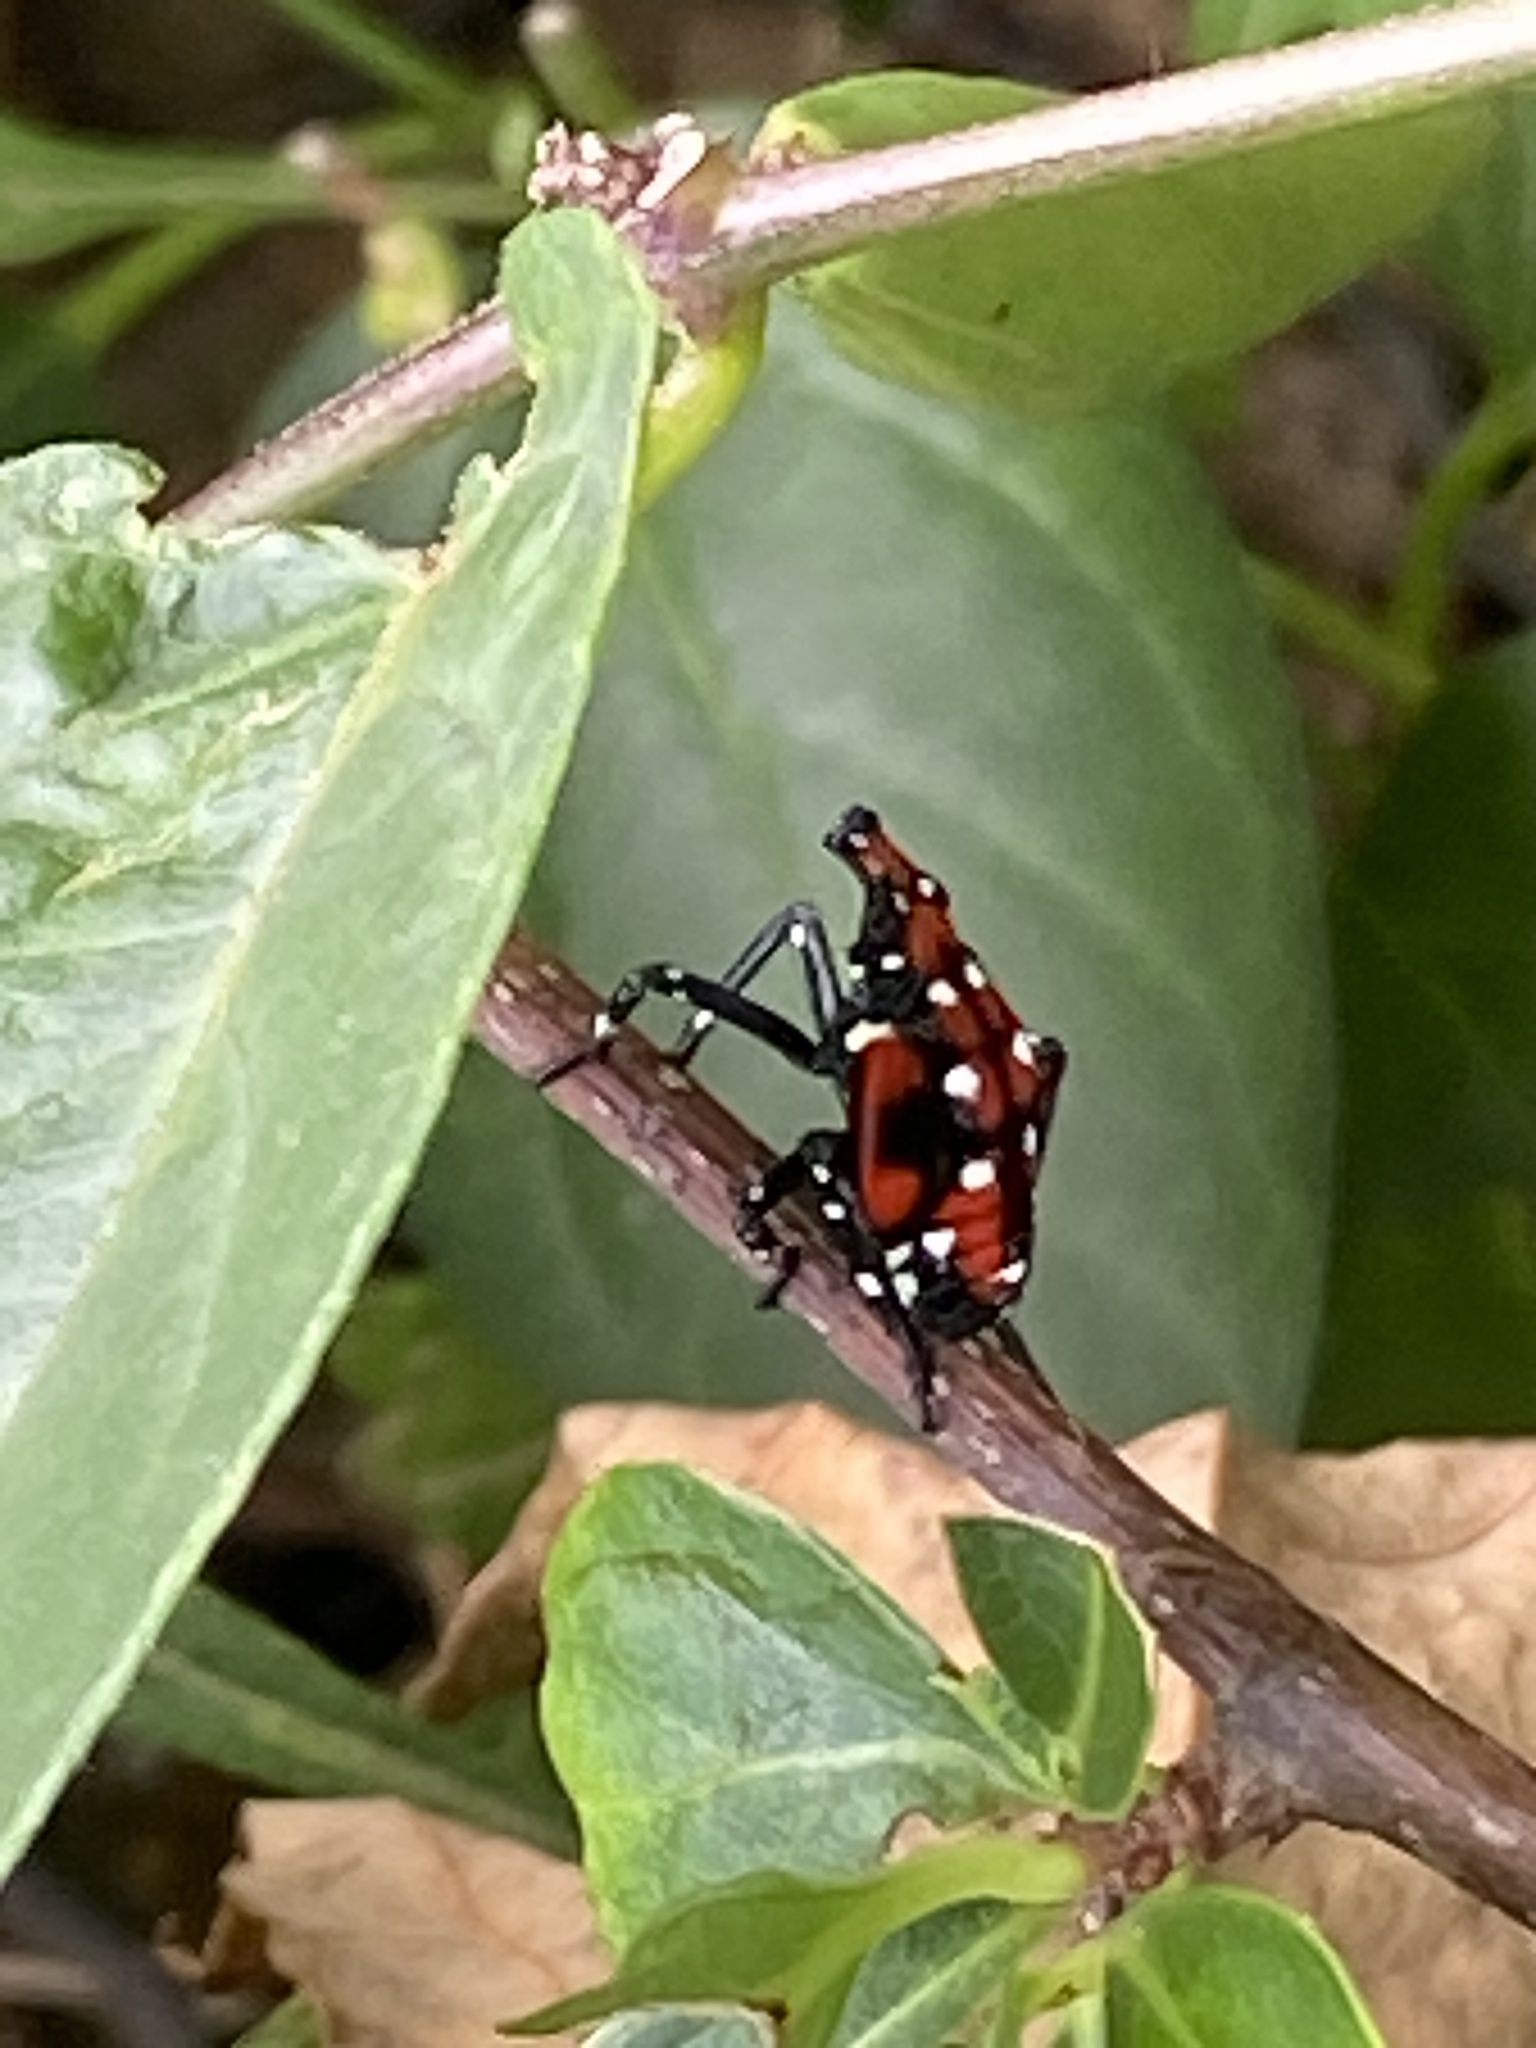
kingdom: Animalia
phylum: Arthropoda
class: Insecta
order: Hemiptera
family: Fulgoridae
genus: Lycorma
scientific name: Lycorma delicatula
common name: Spotted lanternfly
